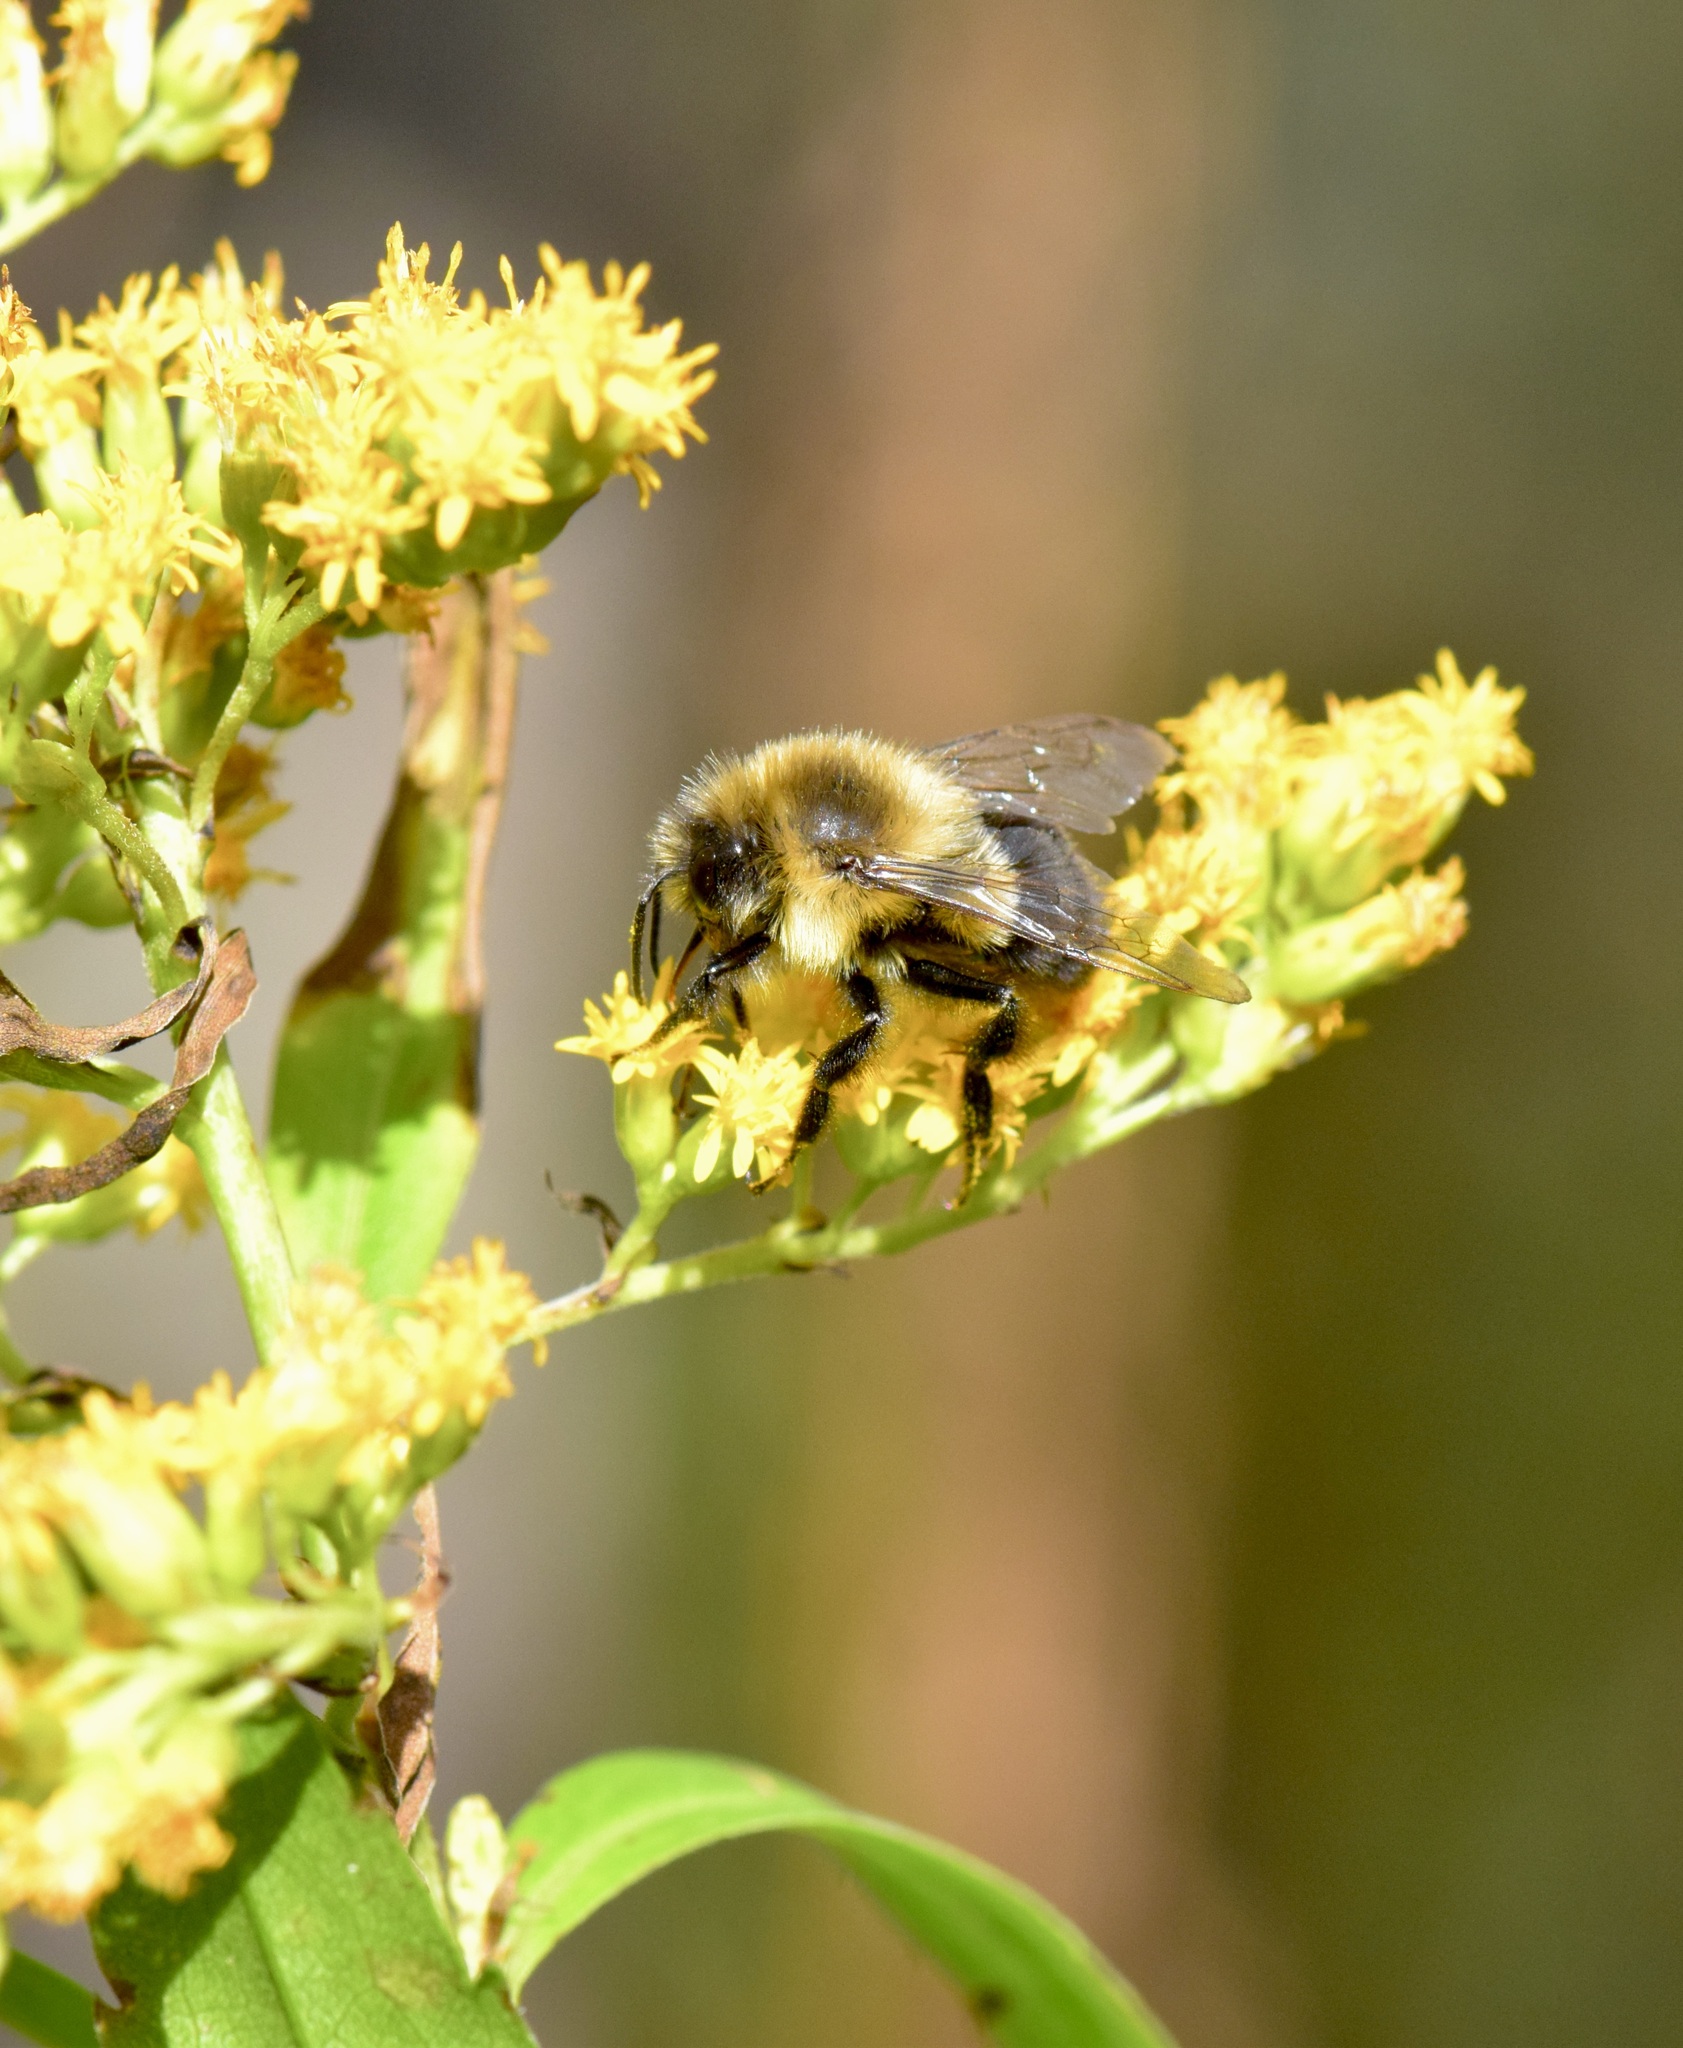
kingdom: Animalia
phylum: Arthropoda
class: Insecta
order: Hymenoptera
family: Apidae
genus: Bombus
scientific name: Bombus impatiens
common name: Common eastern bumble bee
